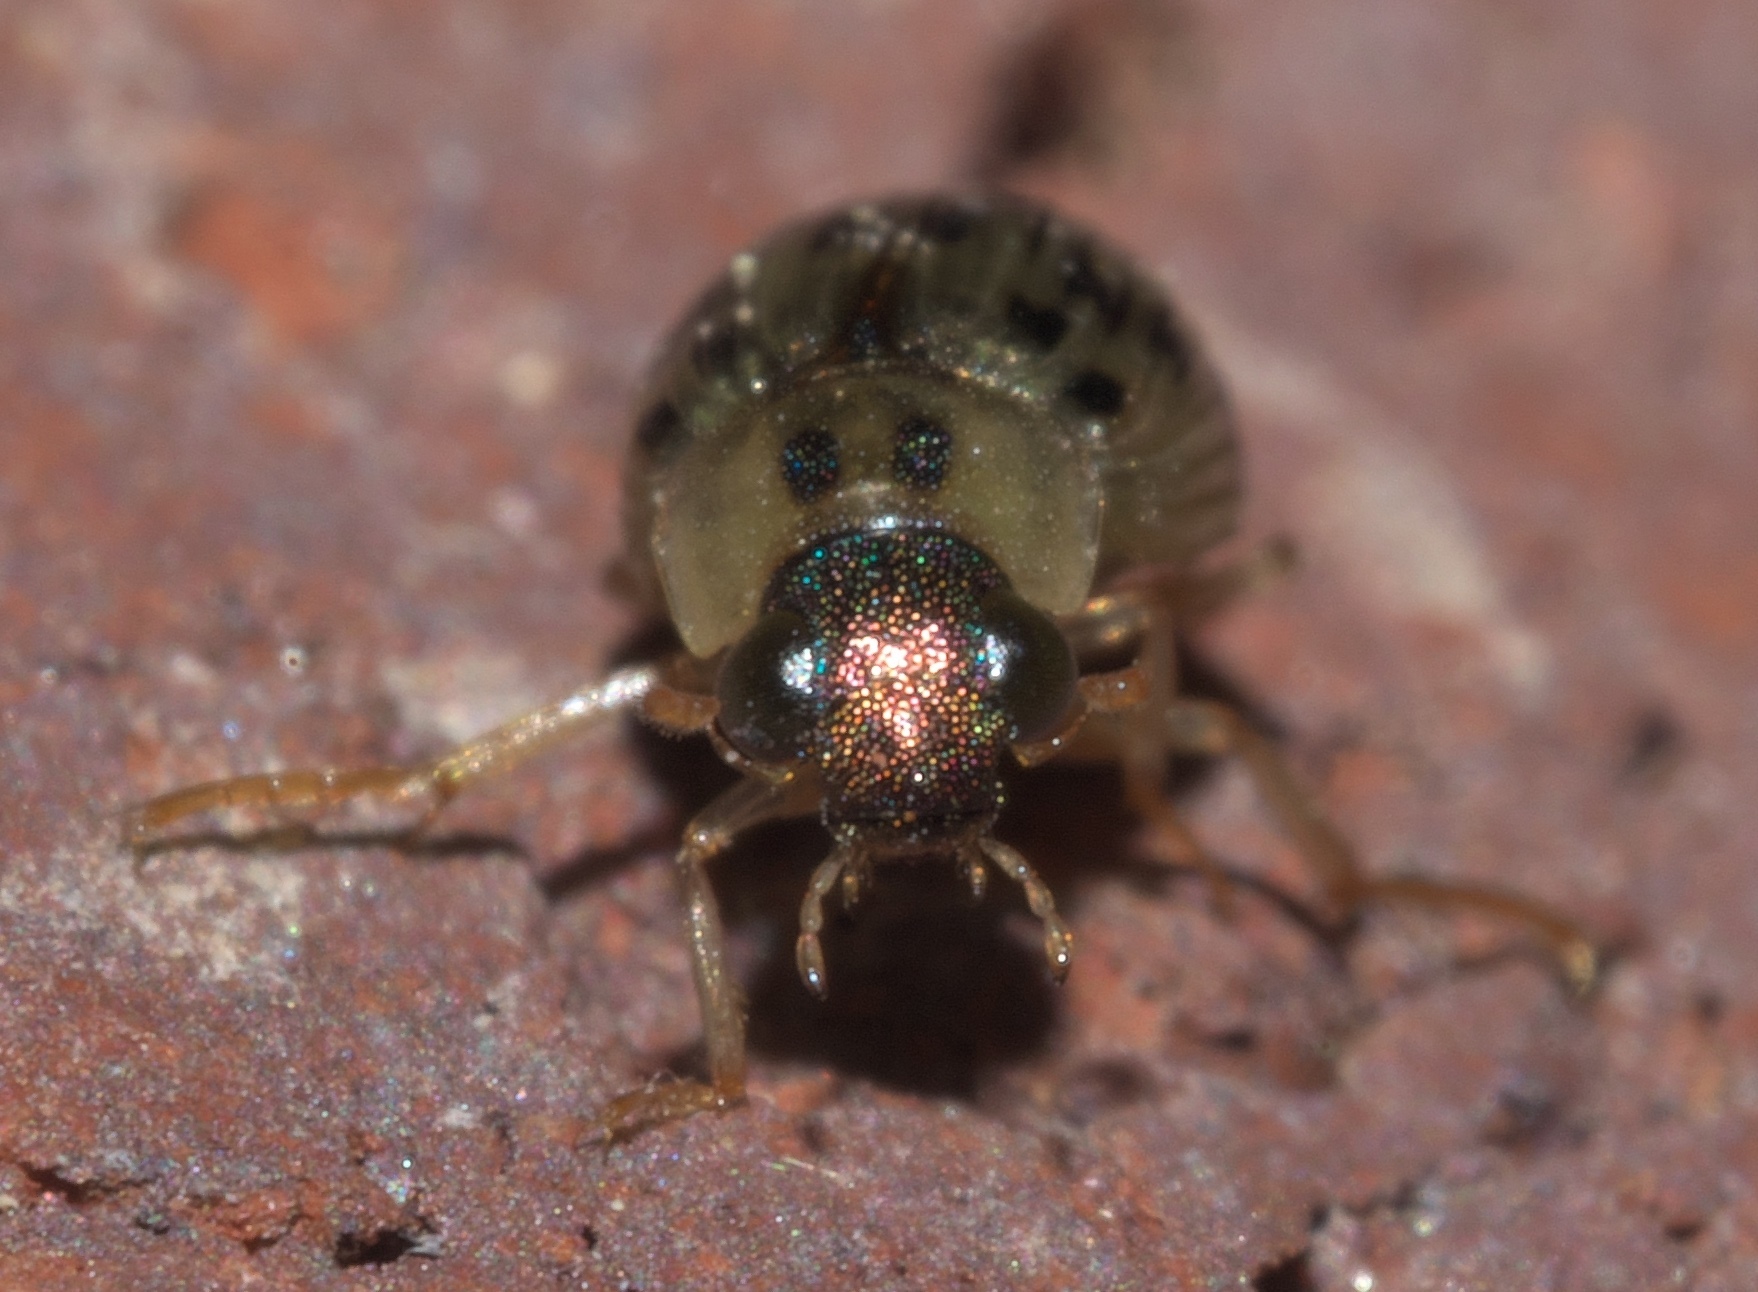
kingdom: Animalia
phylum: Arthropoda
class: Insecta
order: Coleoptera
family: Hydrophilidae
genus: Berosus
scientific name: Berosus pantherinus
